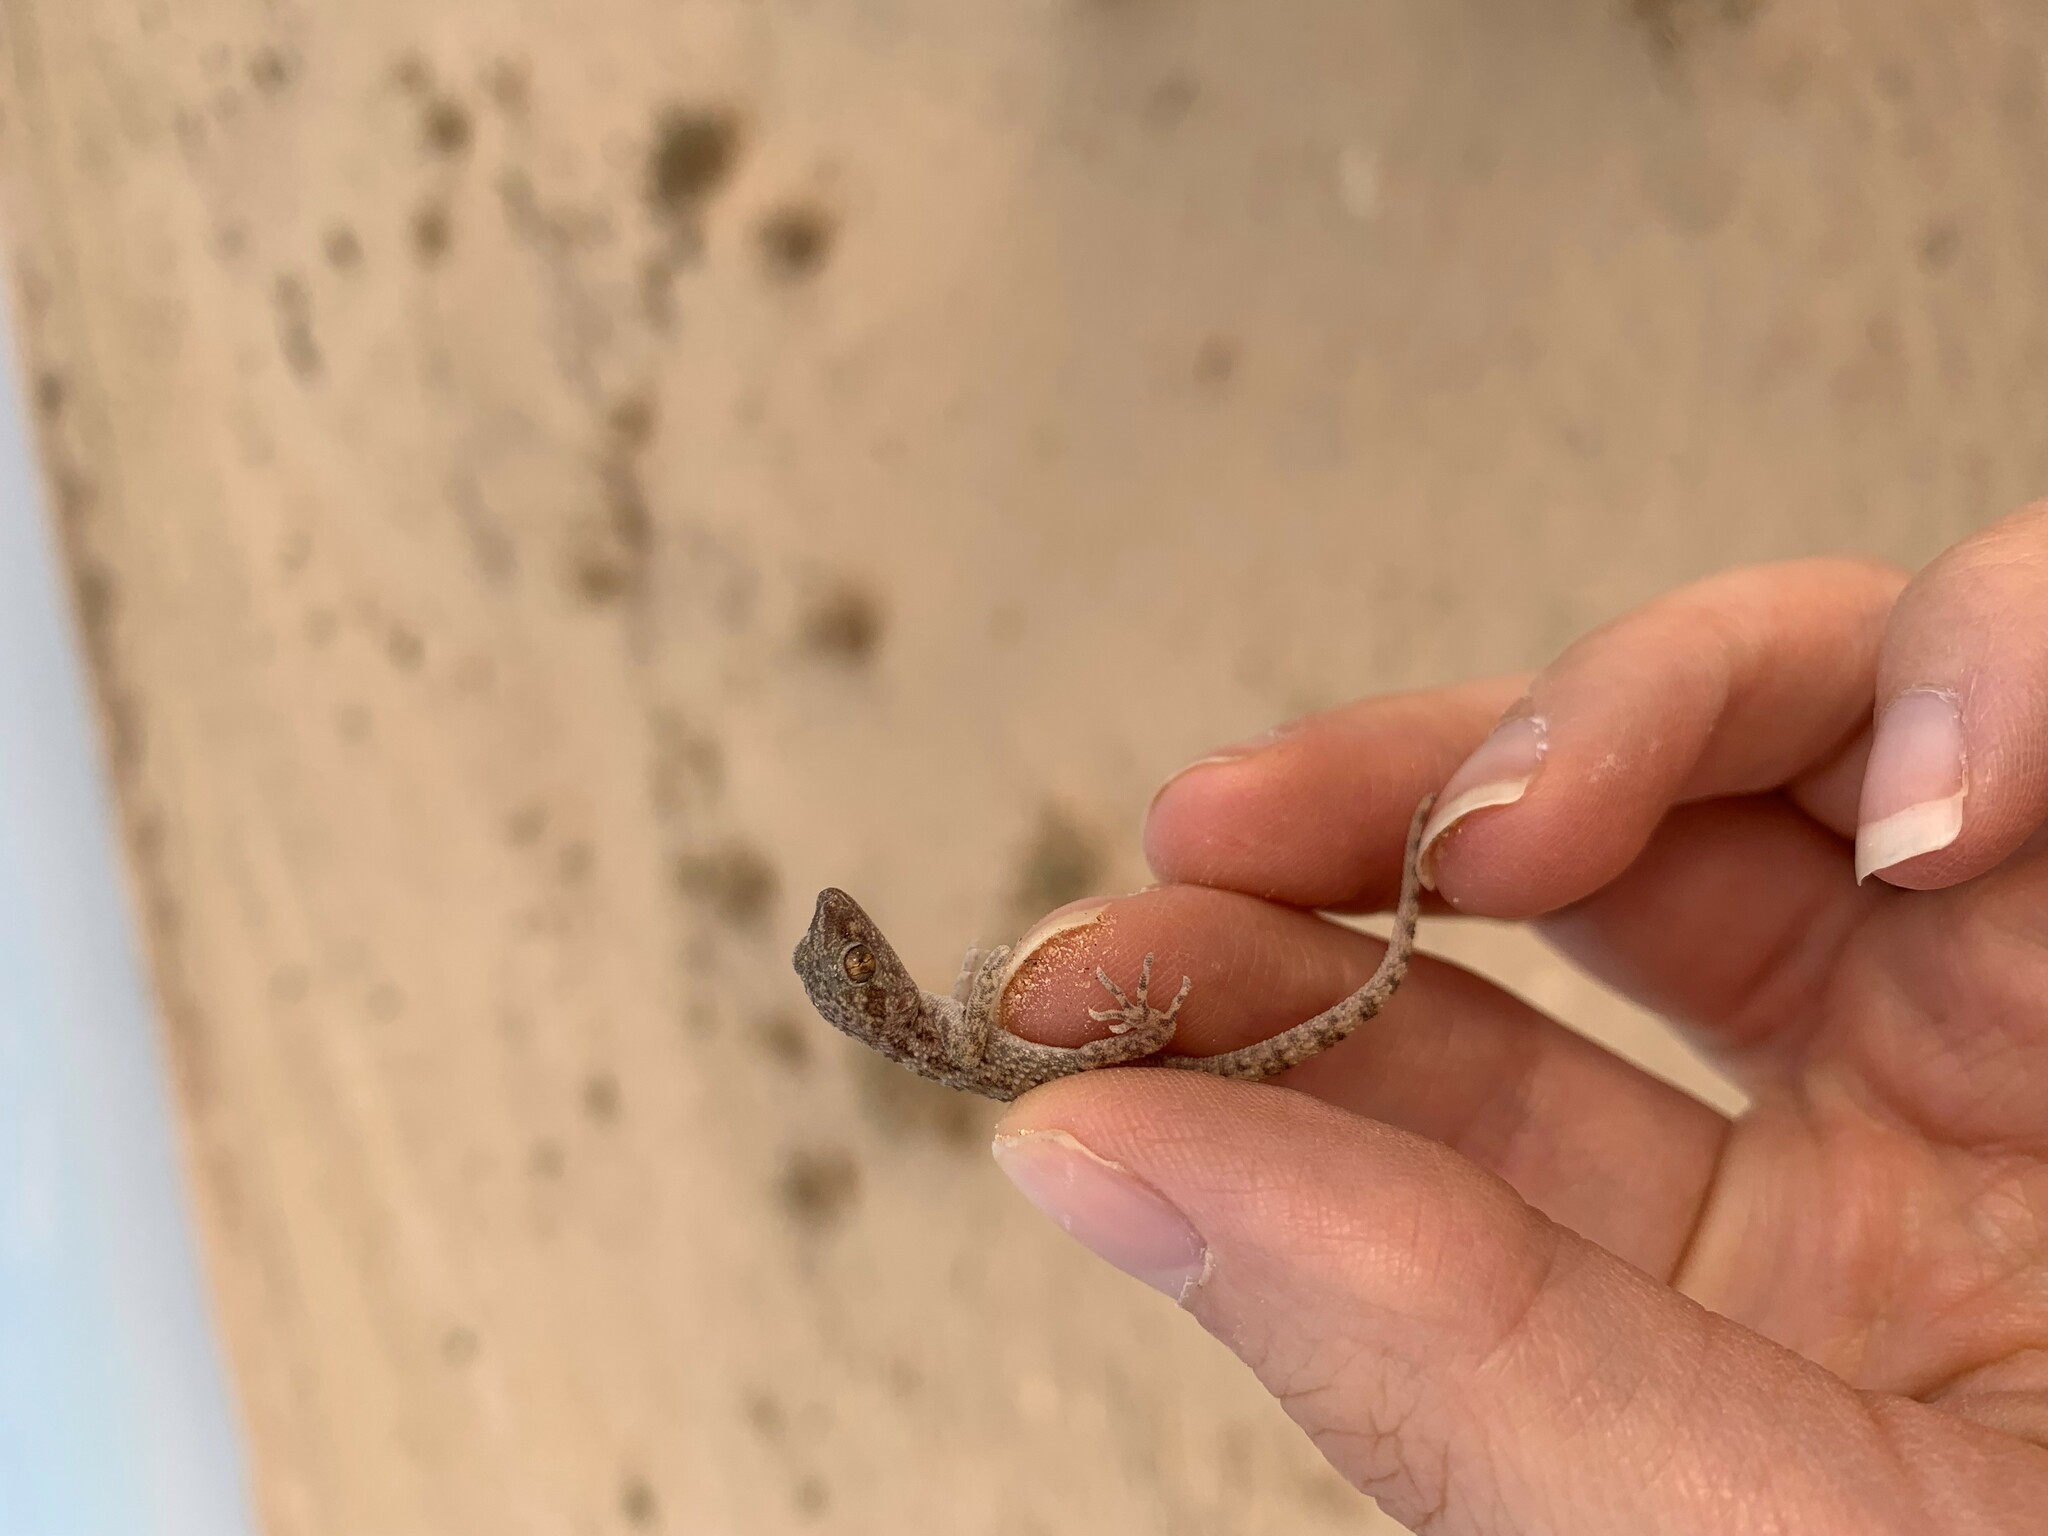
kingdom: Animalia
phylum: Chordata
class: Squamata
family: Gekkonidae
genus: Bunopus
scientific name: Bunopus tuberculatus
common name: Southern tuberculated gecko
